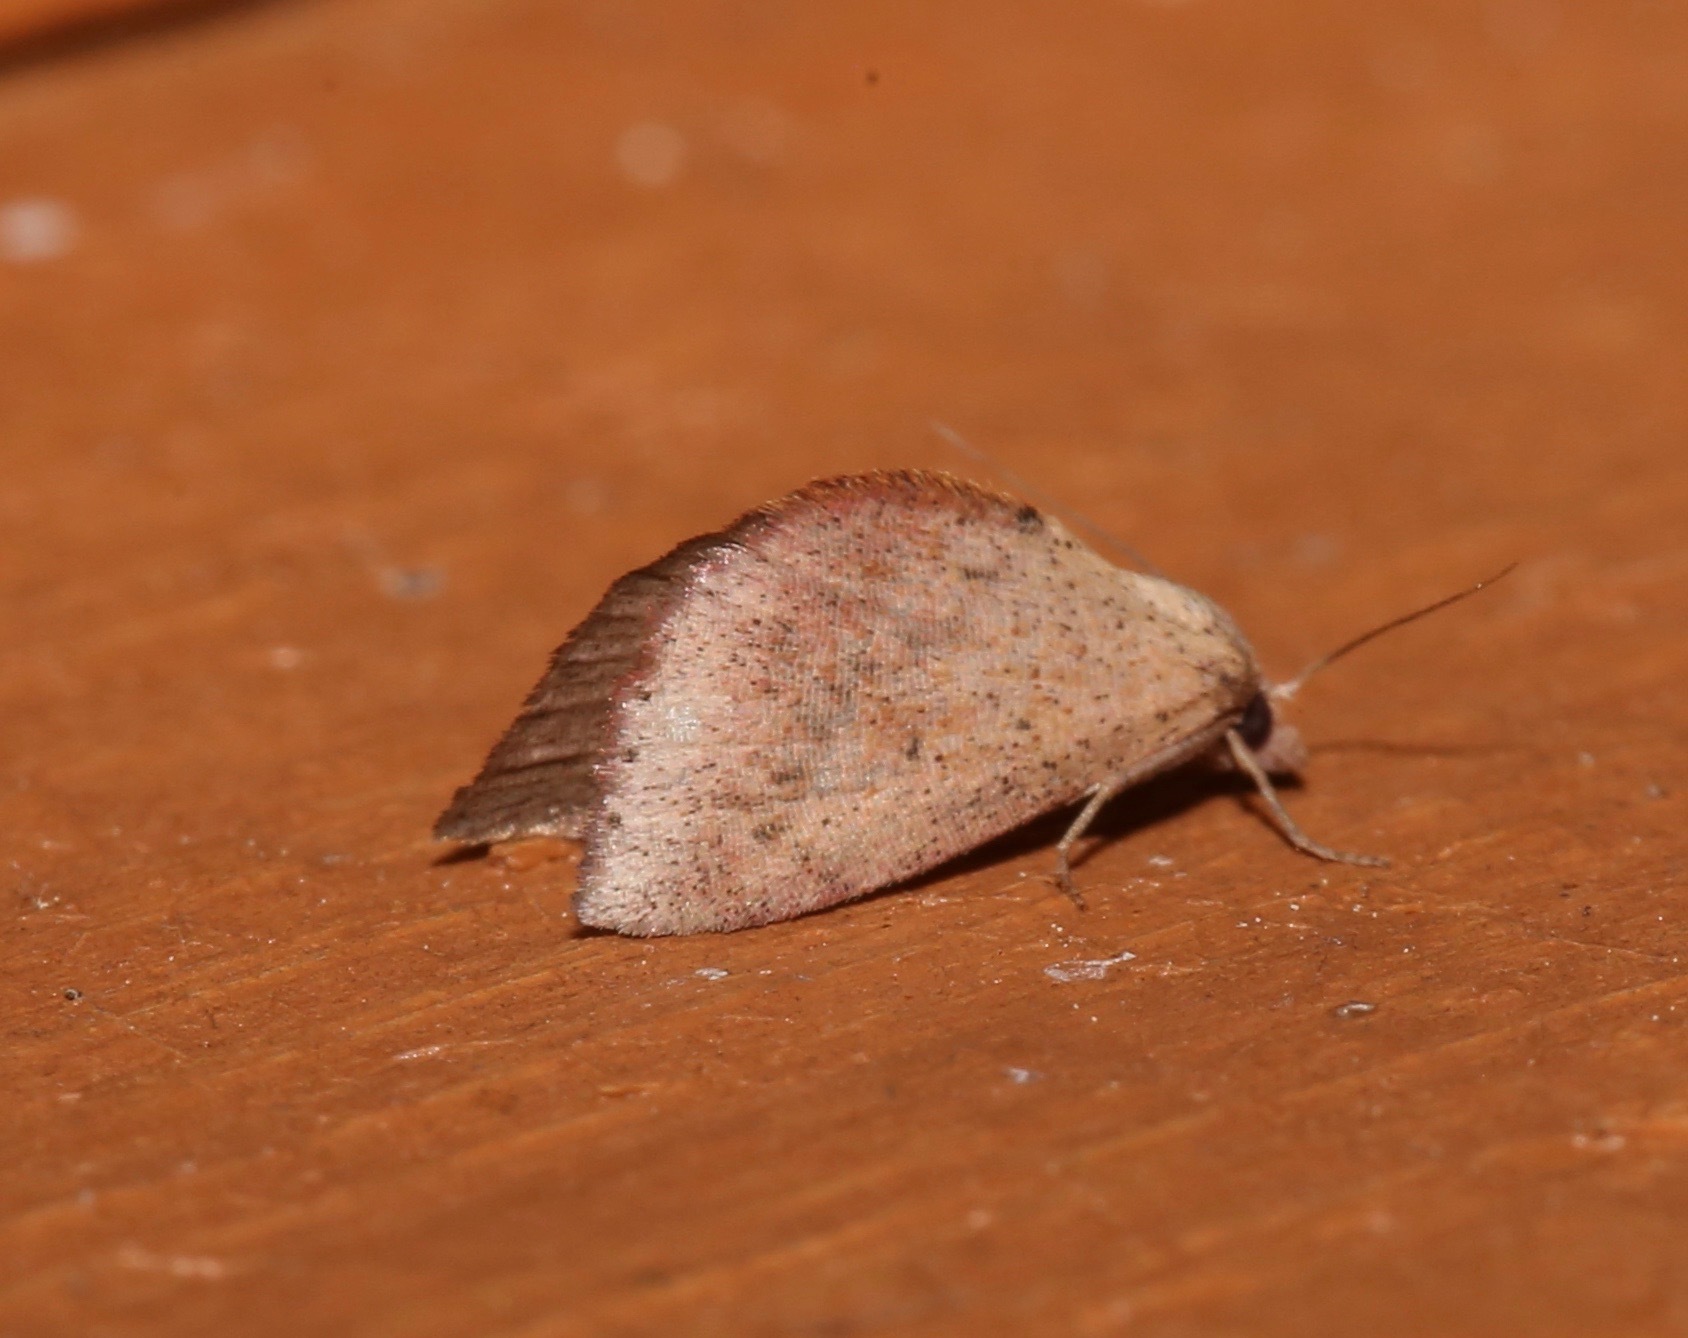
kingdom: Animalia
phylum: Arthropoda
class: Insecta
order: Lepidoptera
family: Noctuidae
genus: Proroblemma
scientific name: Proroblemma testa
